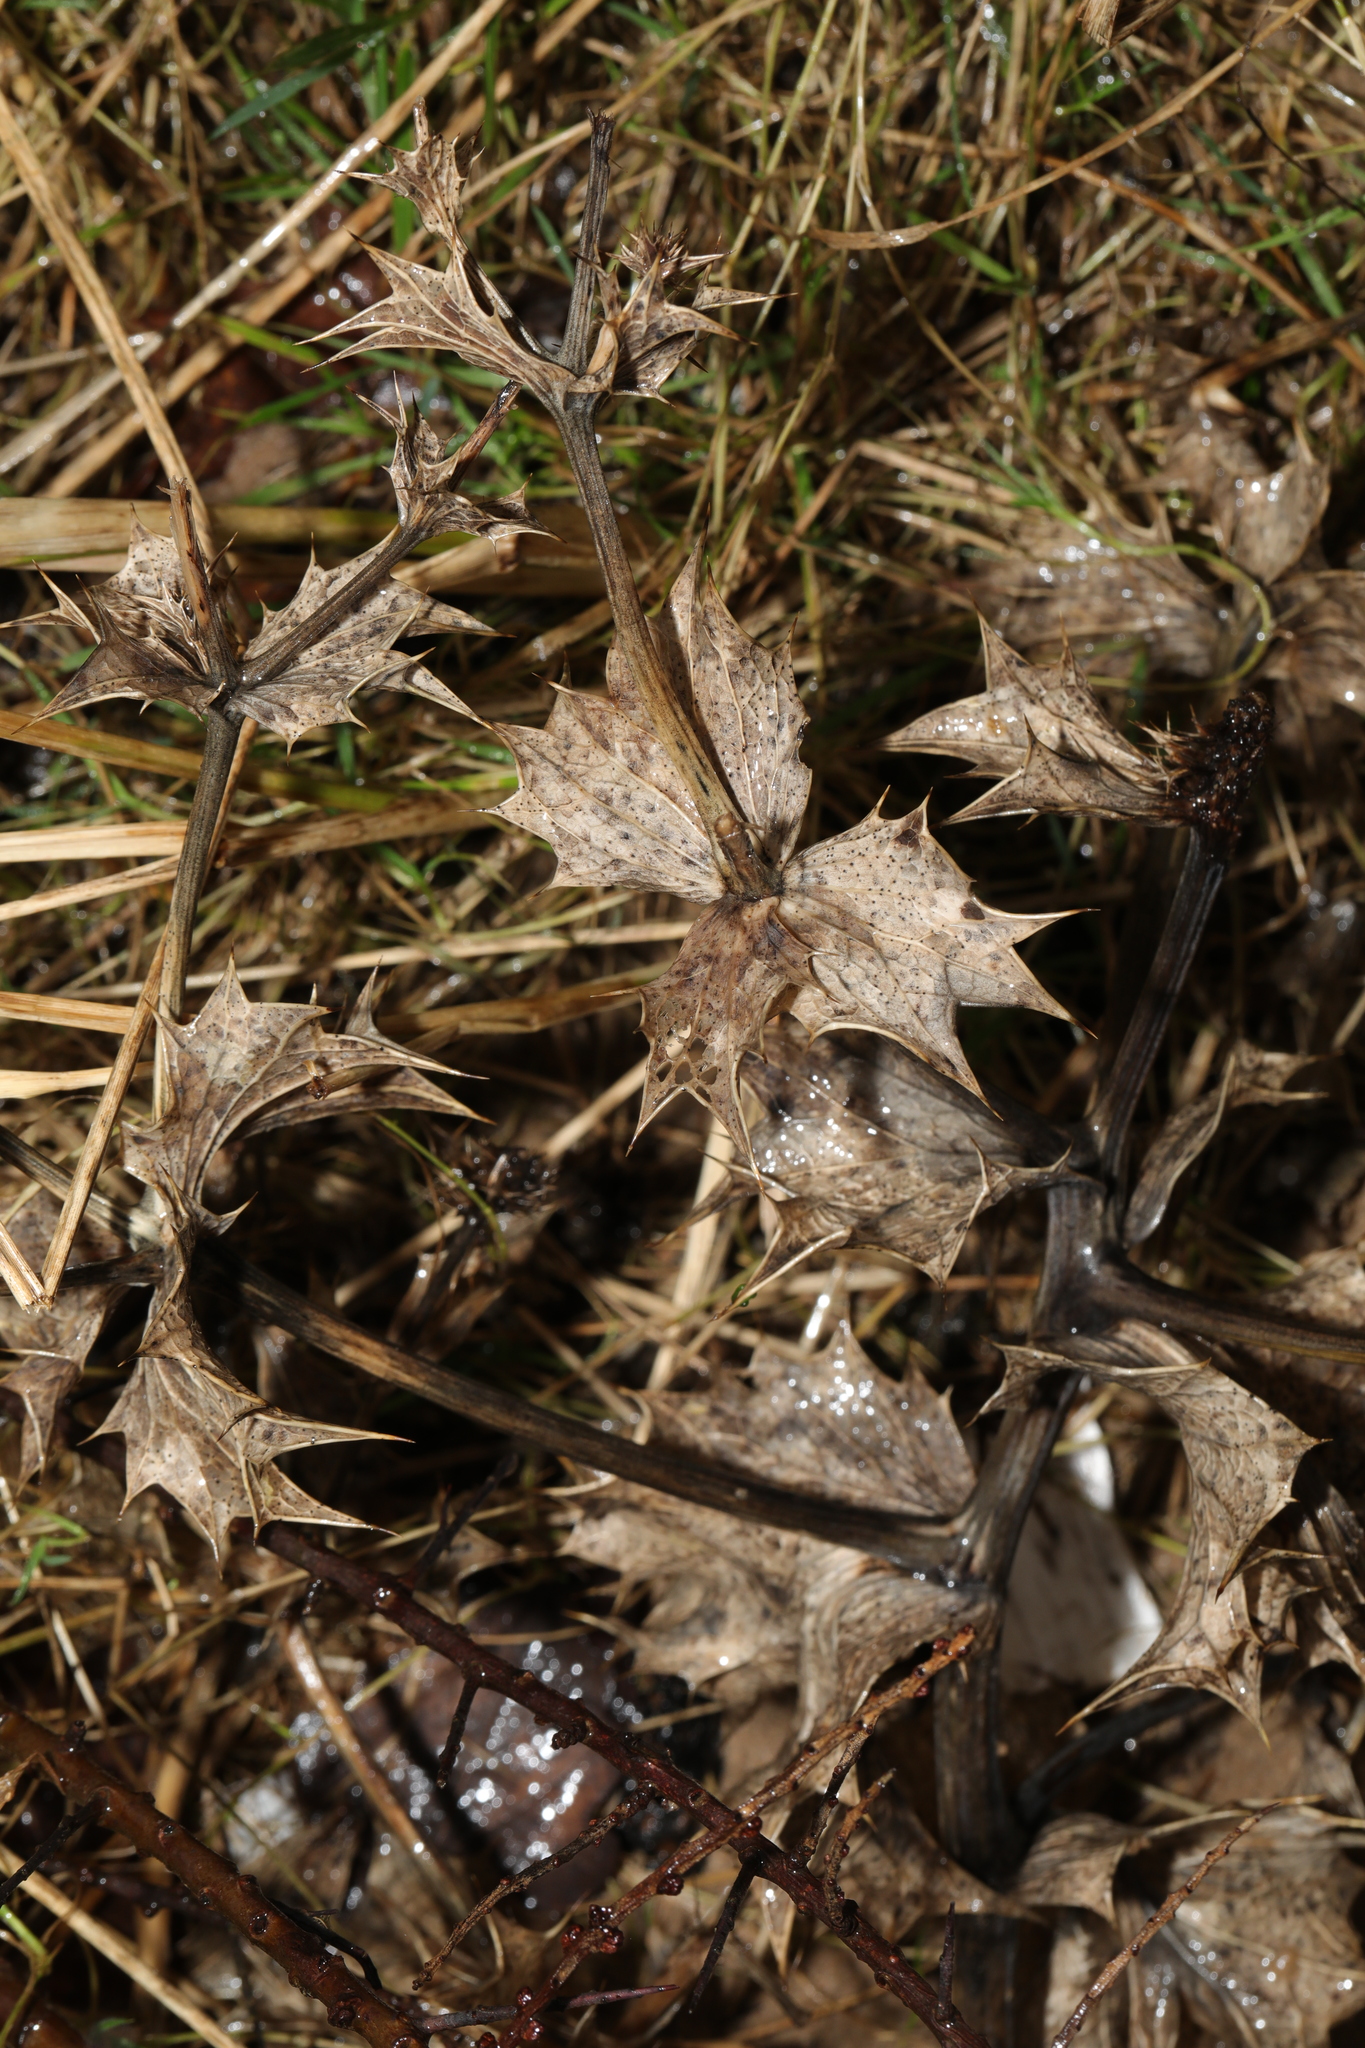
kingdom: Plantae
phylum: Tracheophyta
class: Magnoliopsida
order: Apiales
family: Apiaceae
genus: Eryngium
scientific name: Eryngium maritimum
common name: Sea-holly
